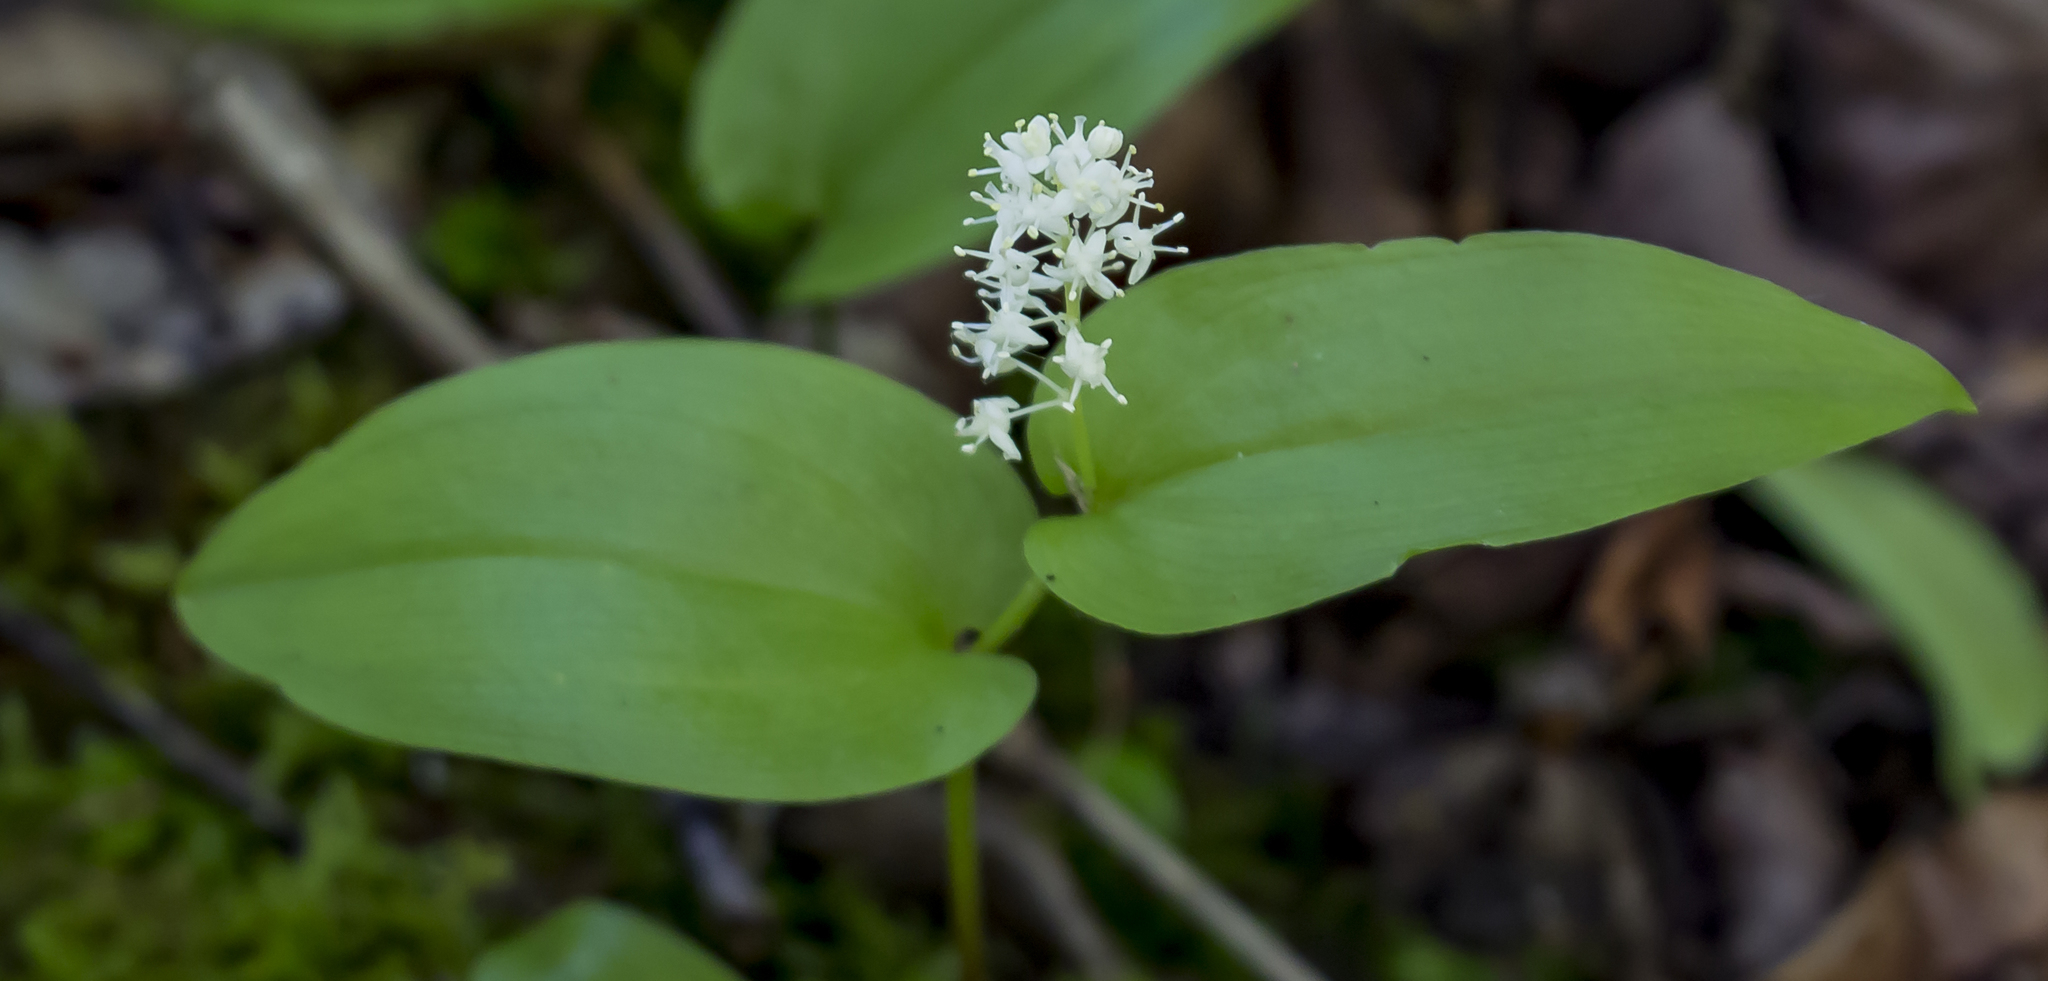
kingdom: Plantae
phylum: Tracheophyta
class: Liliopsida
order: Asparagales
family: Asparagaceae
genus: Maianthemum
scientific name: Maianthemum canadense
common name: False lily-of-the-valley
